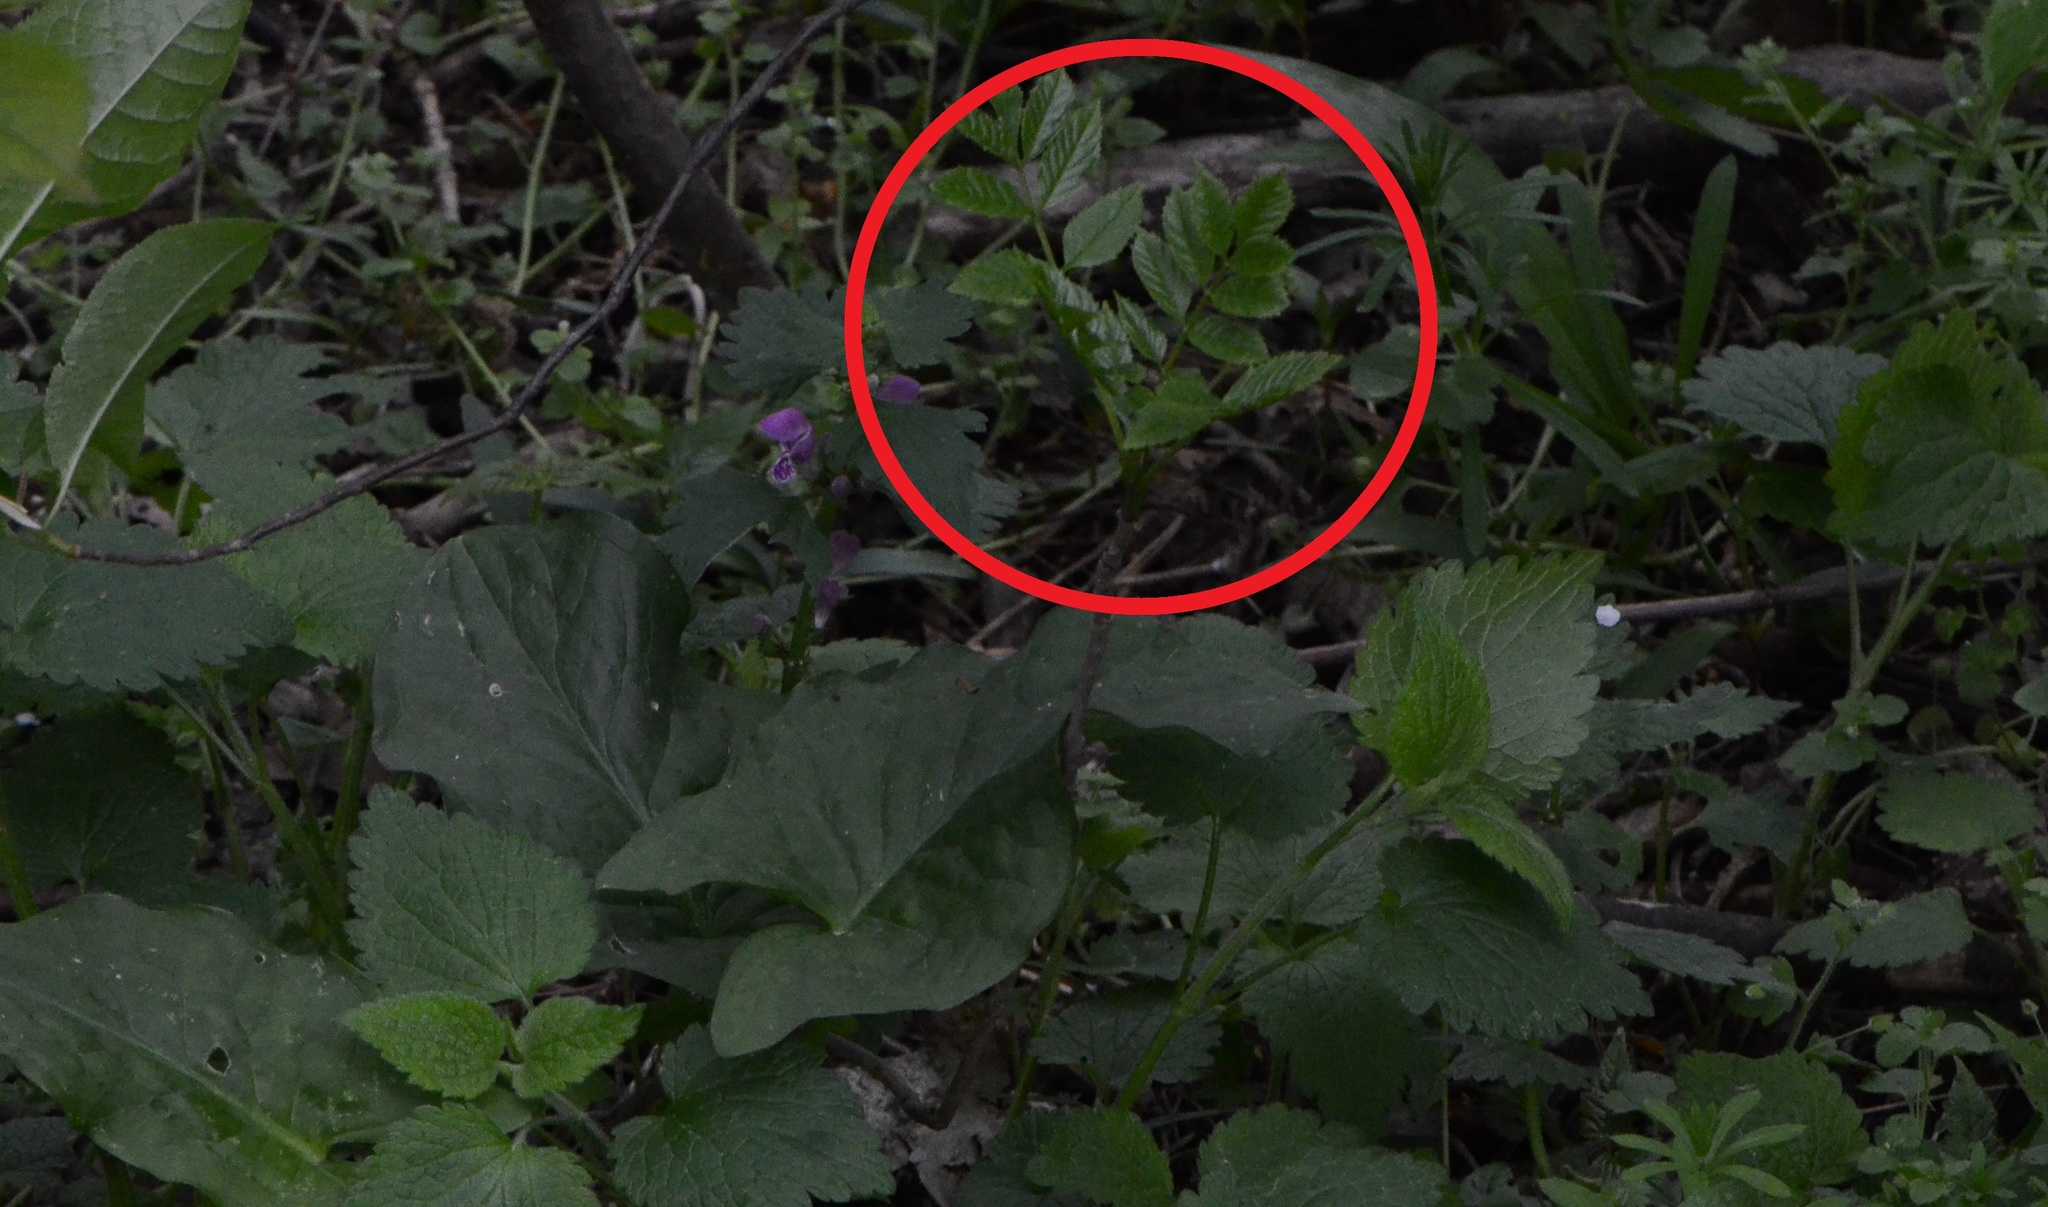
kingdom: Plantae
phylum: Tracheophyta
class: Magnoliopsida
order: Lamiales
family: Oleaceae
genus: Fraxinus
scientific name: Fraxinus excelsior
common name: European ash
